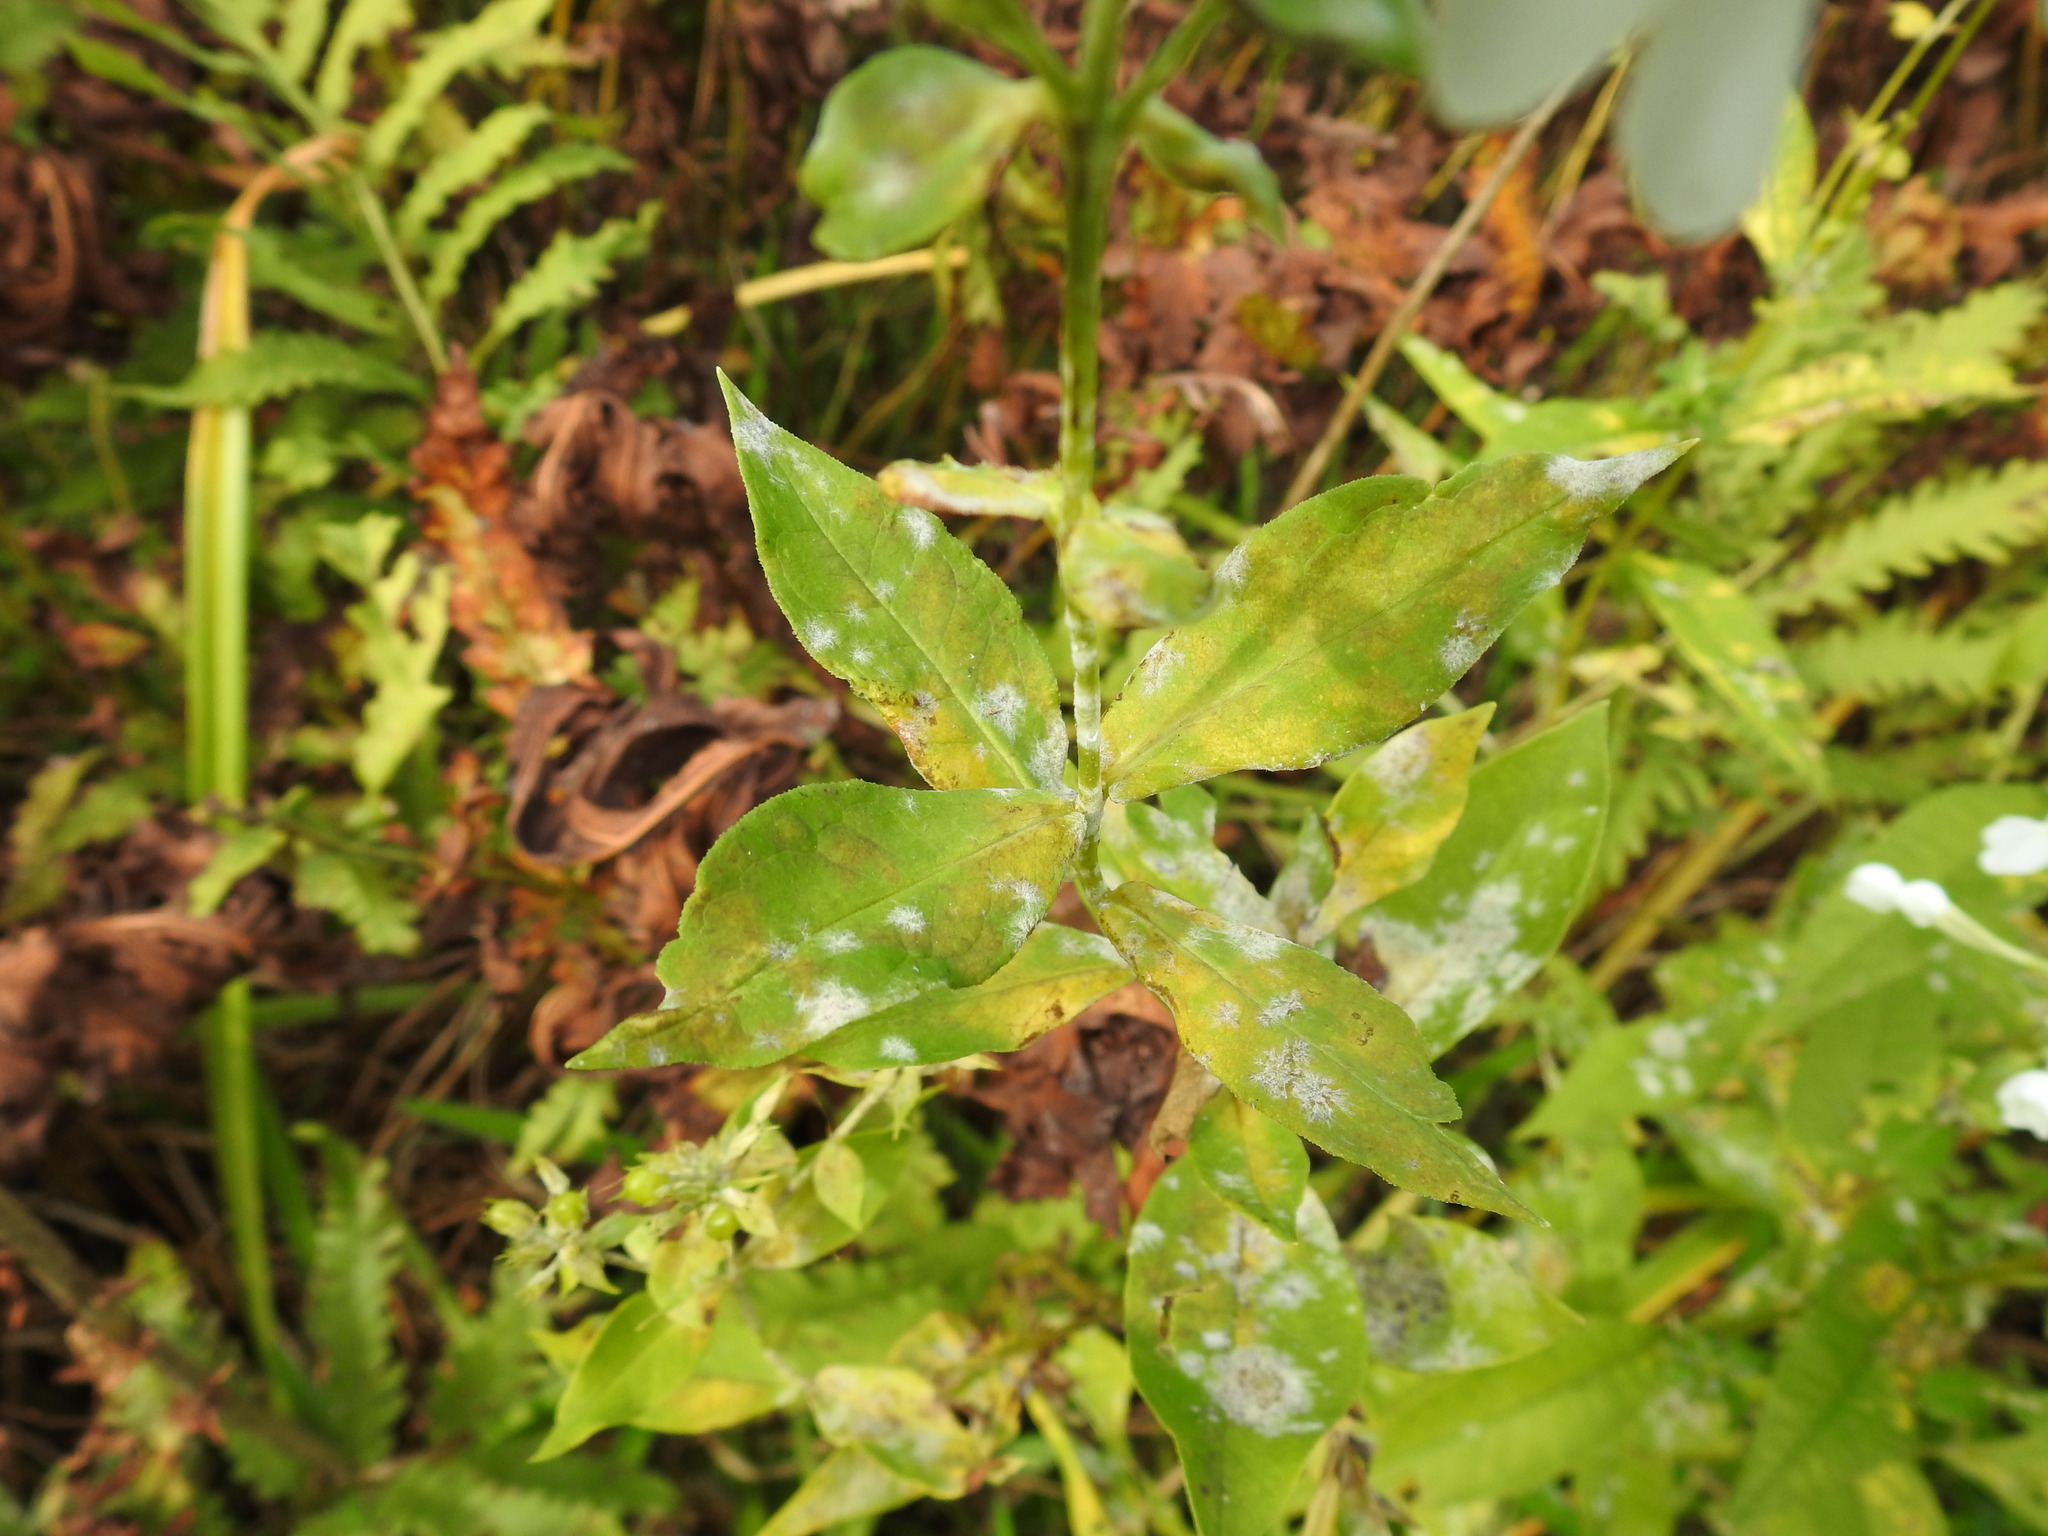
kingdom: Plantae
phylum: Tracheophyta
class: Magnoliopsida
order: Ericales
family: Polemoniaceae
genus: Phlox
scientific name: Phlox paniculata
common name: Fall phlox
